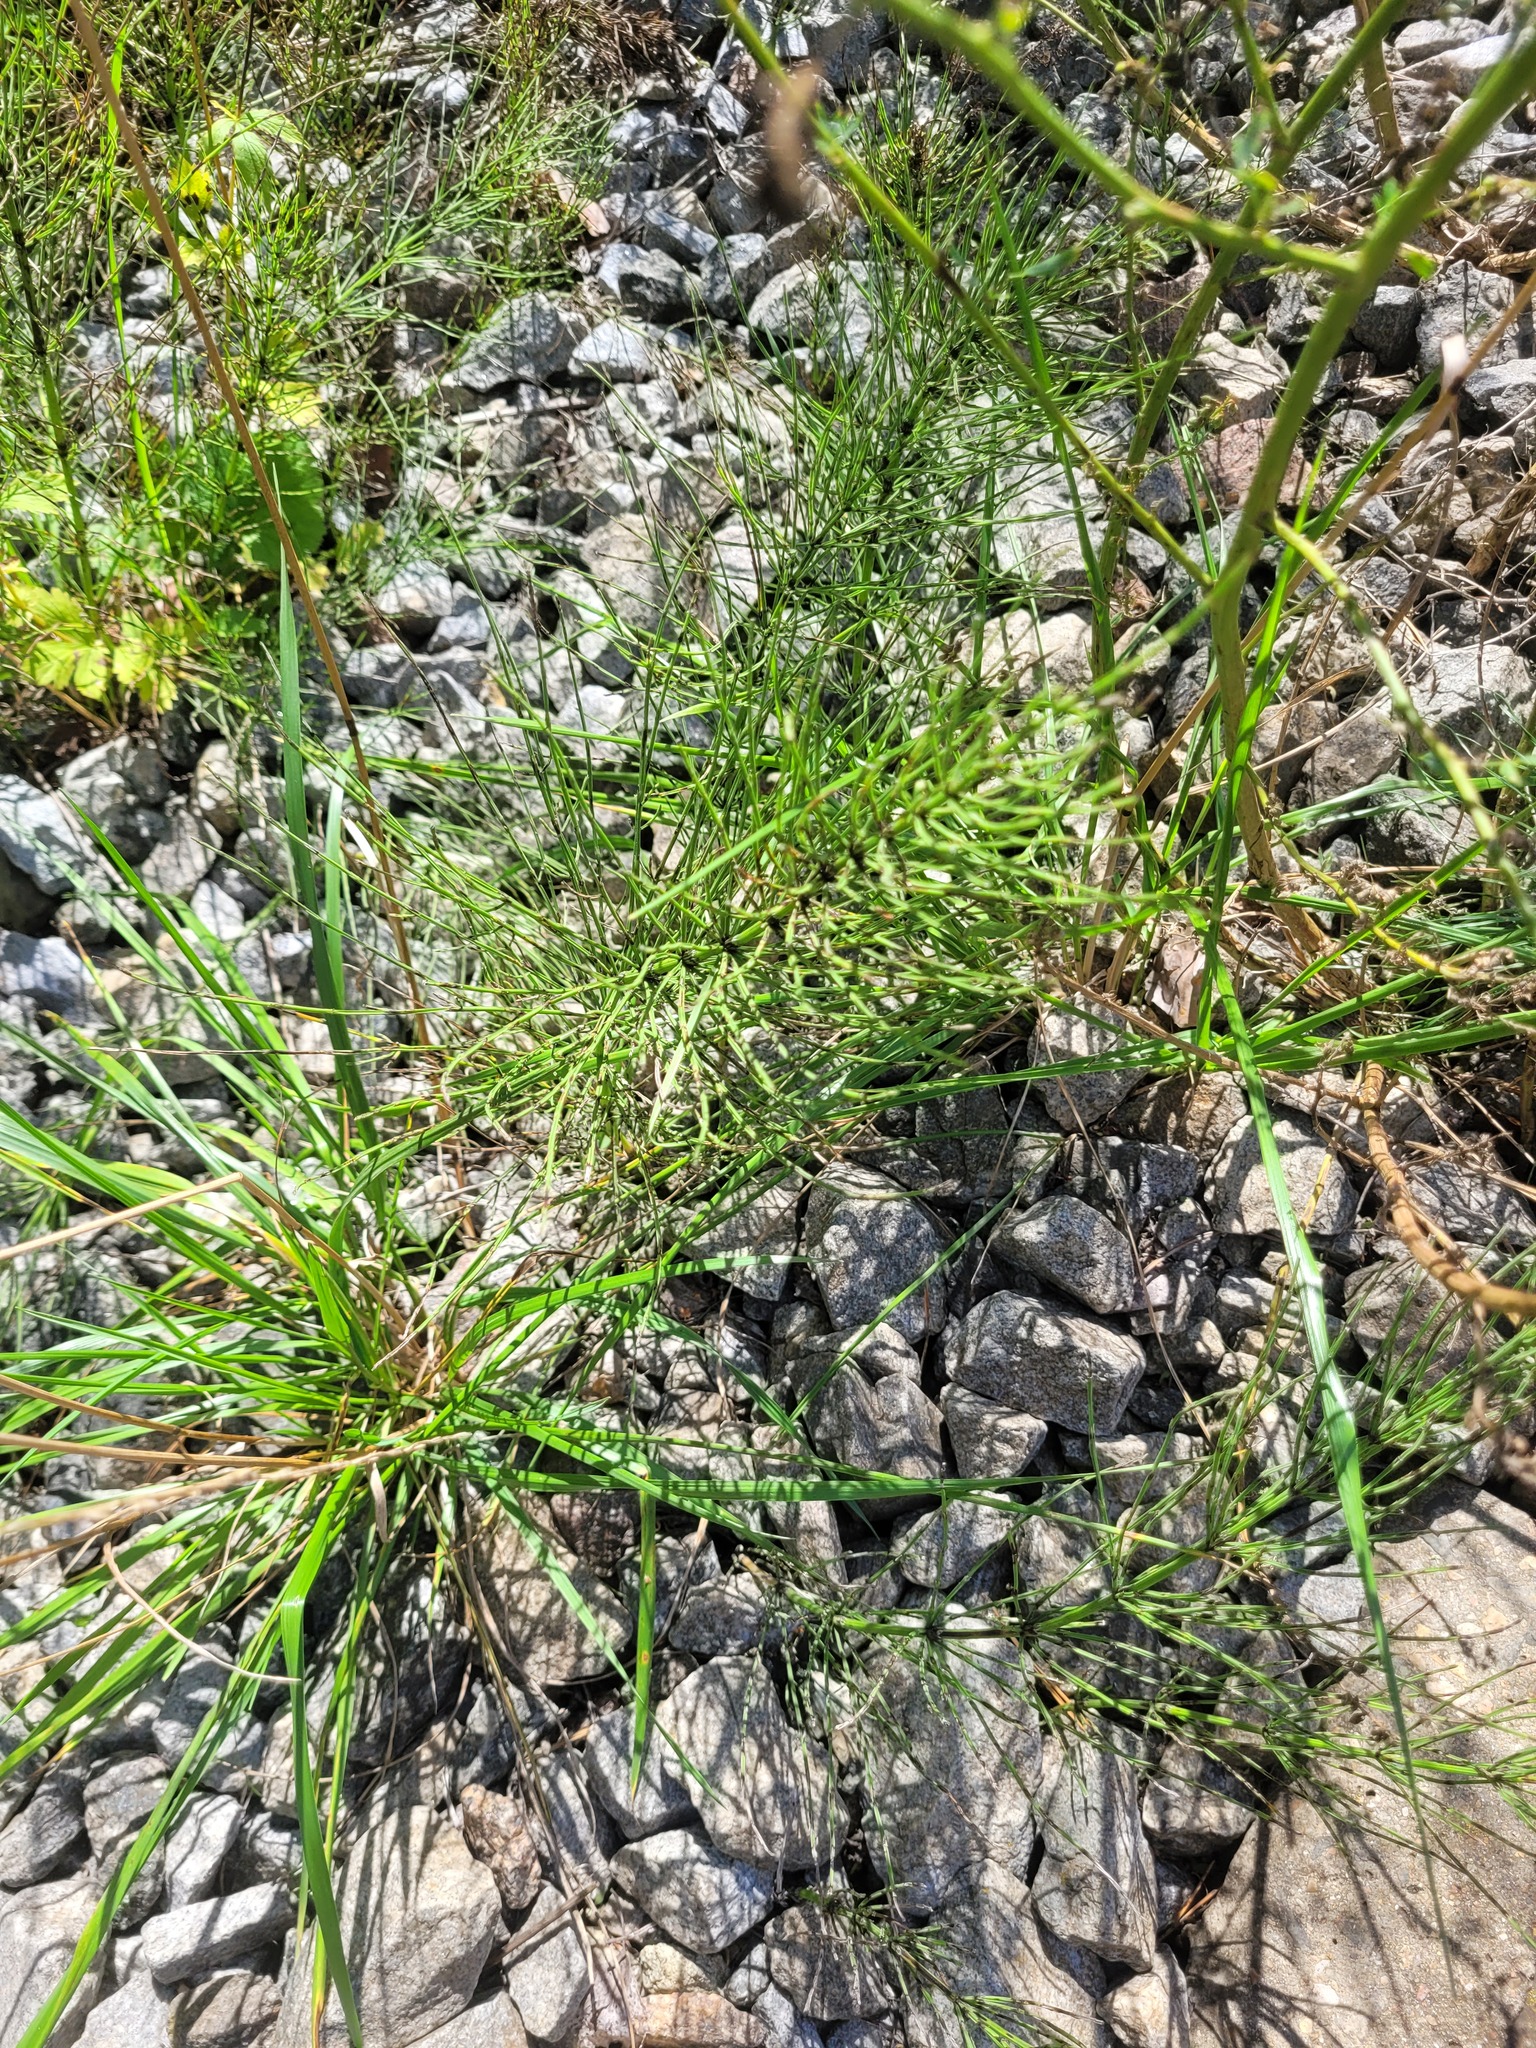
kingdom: Plantae
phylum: Tracheophyta
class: Polypodiopsida
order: Equisetales
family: Equisetaceae
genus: Equisetum
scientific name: Equisetum arvense
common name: Field horsetail
